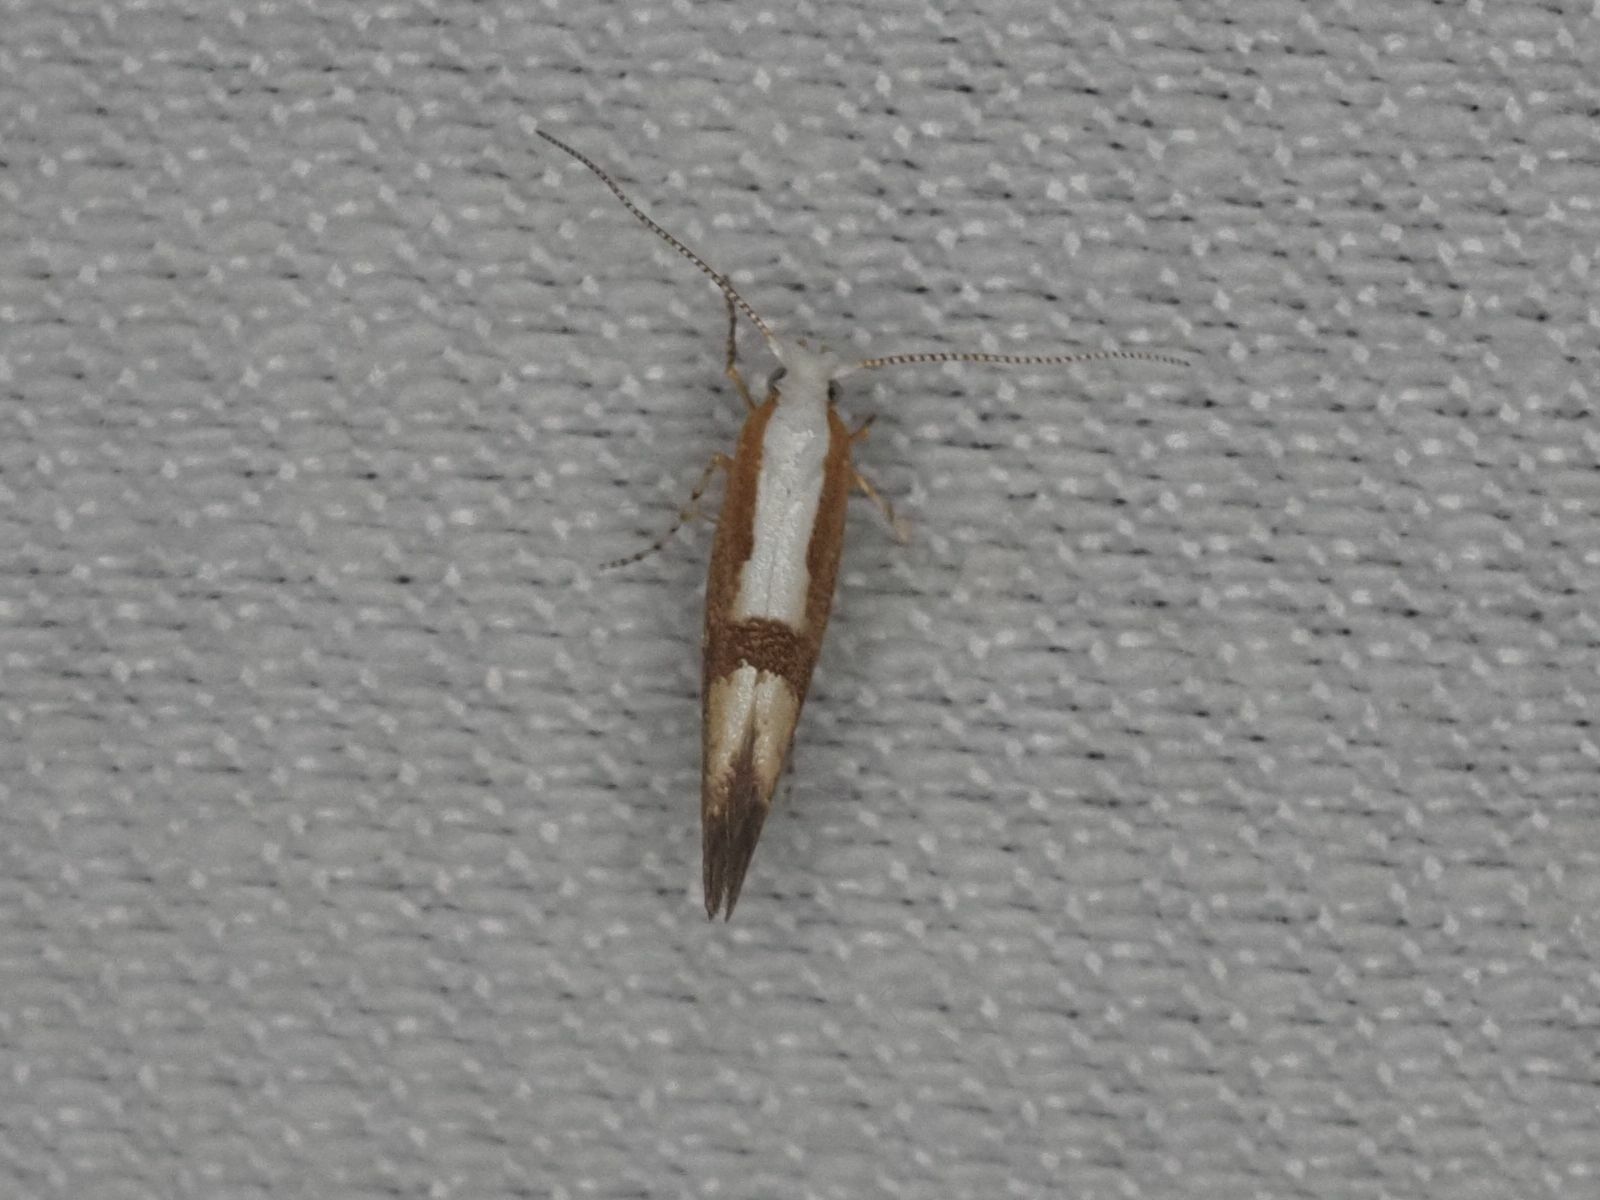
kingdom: Animalia
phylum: Arthropoda
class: Insecta
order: Lepidoptera
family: Argyresthiidae
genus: Argyresthia
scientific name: Argyresthia pruniella
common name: Cherry fruit moth
